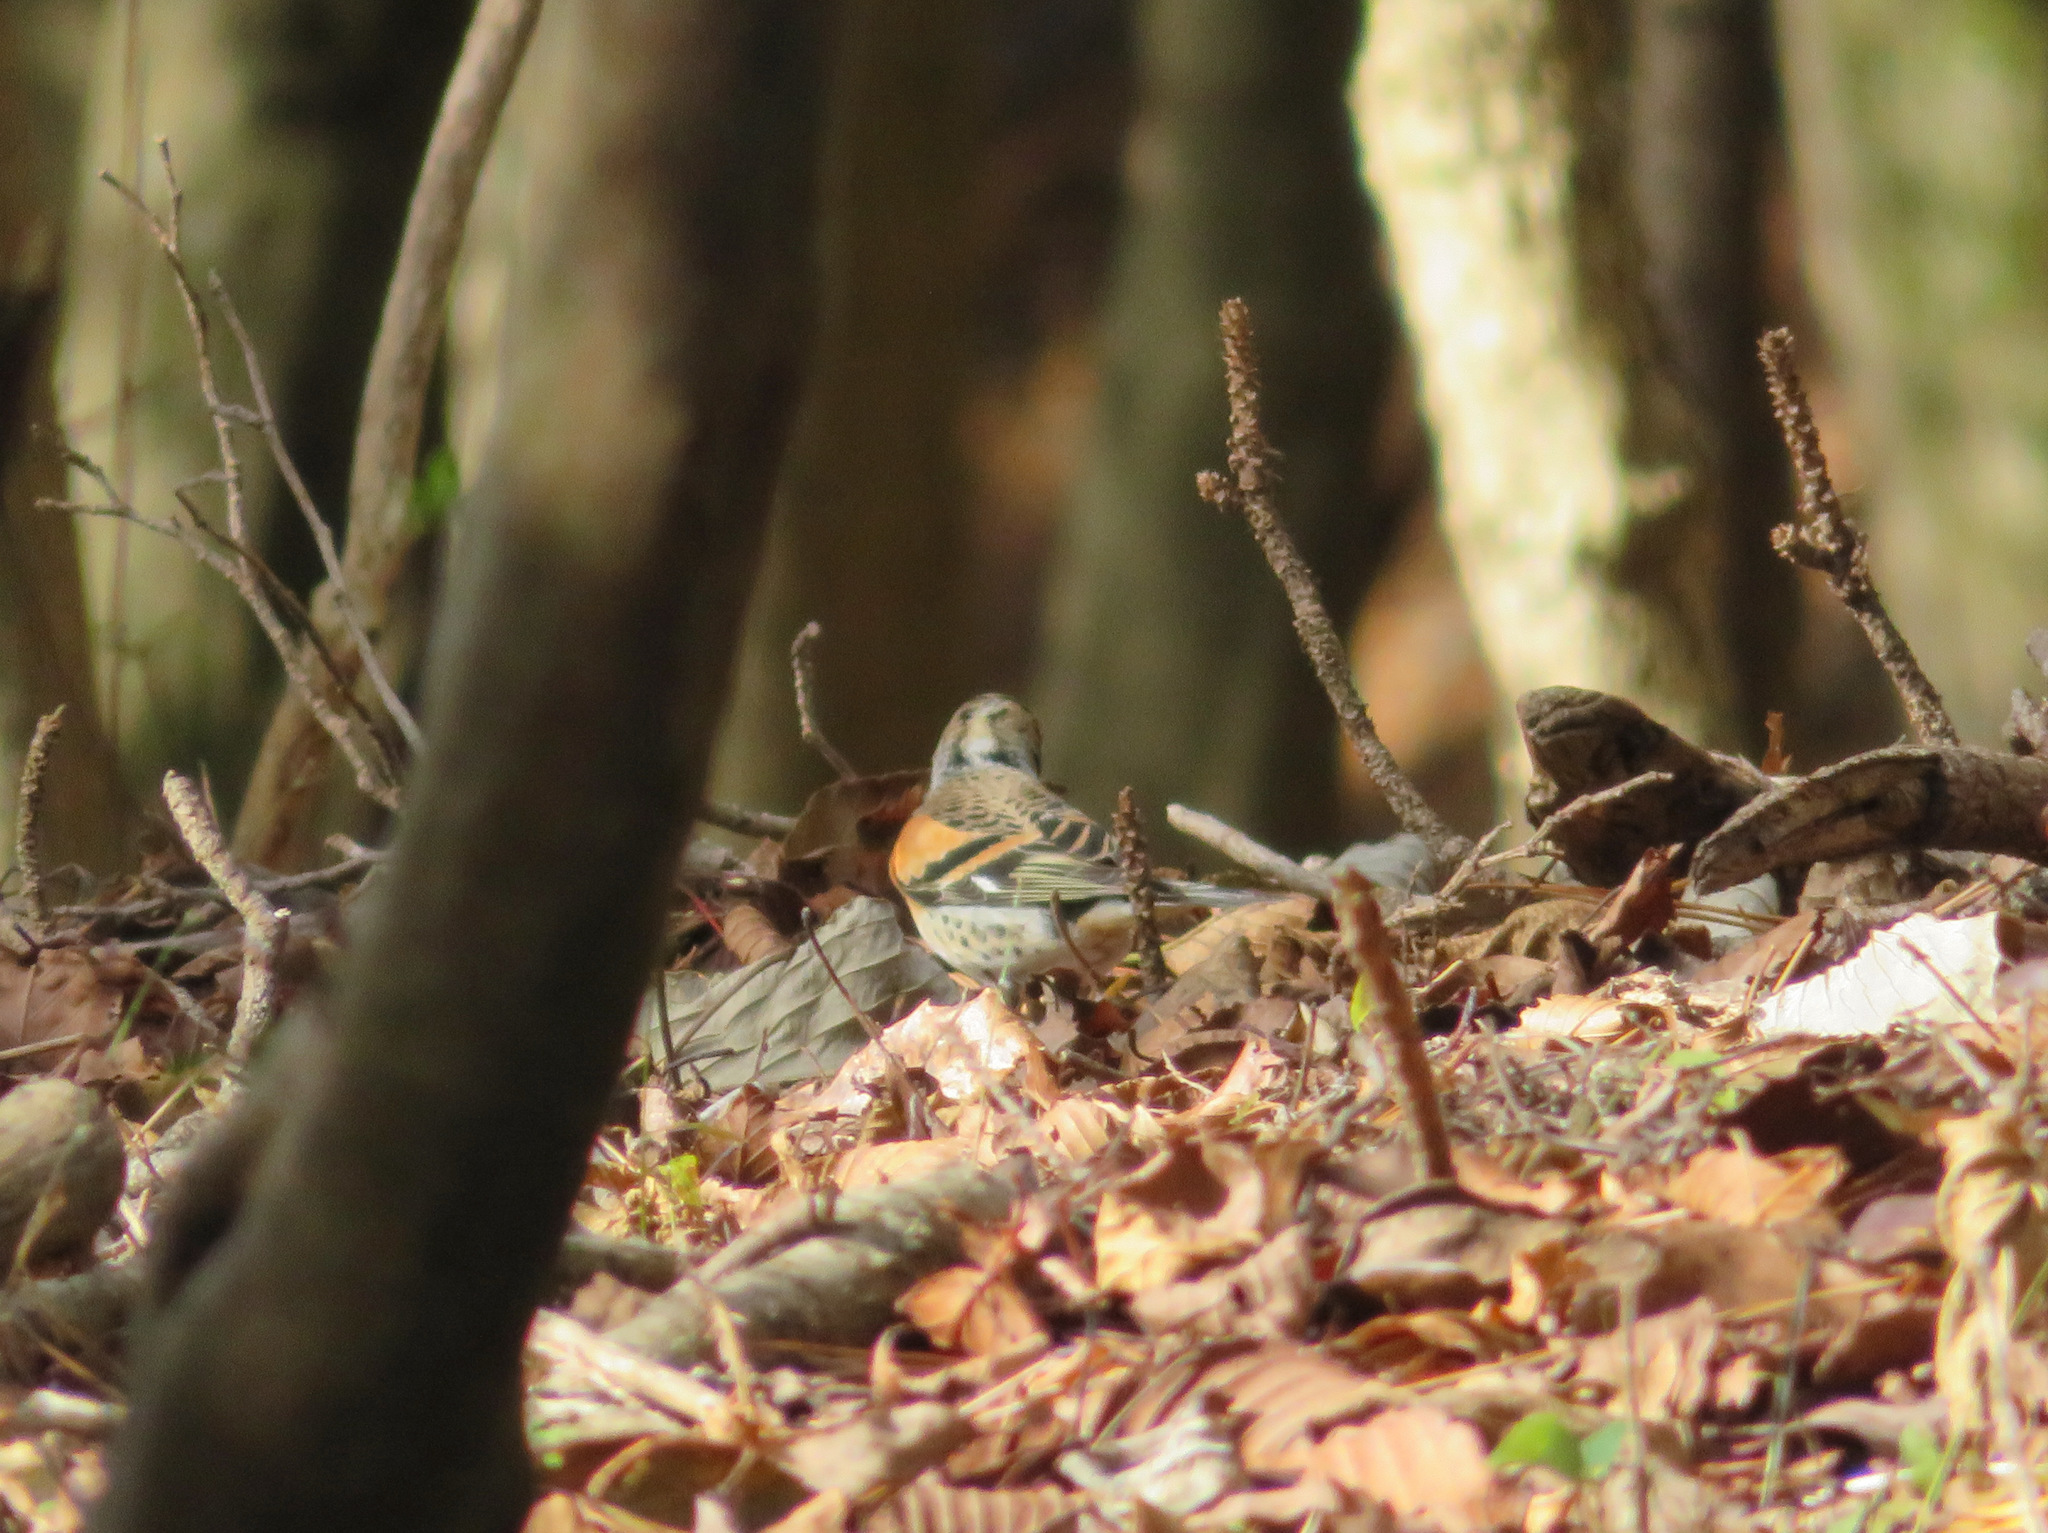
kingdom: Animalia
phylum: Chordata
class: Aves
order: Passeriformes
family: Fringillidae
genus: Fringilla
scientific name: Fringilla montifringilla
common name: Brambling
